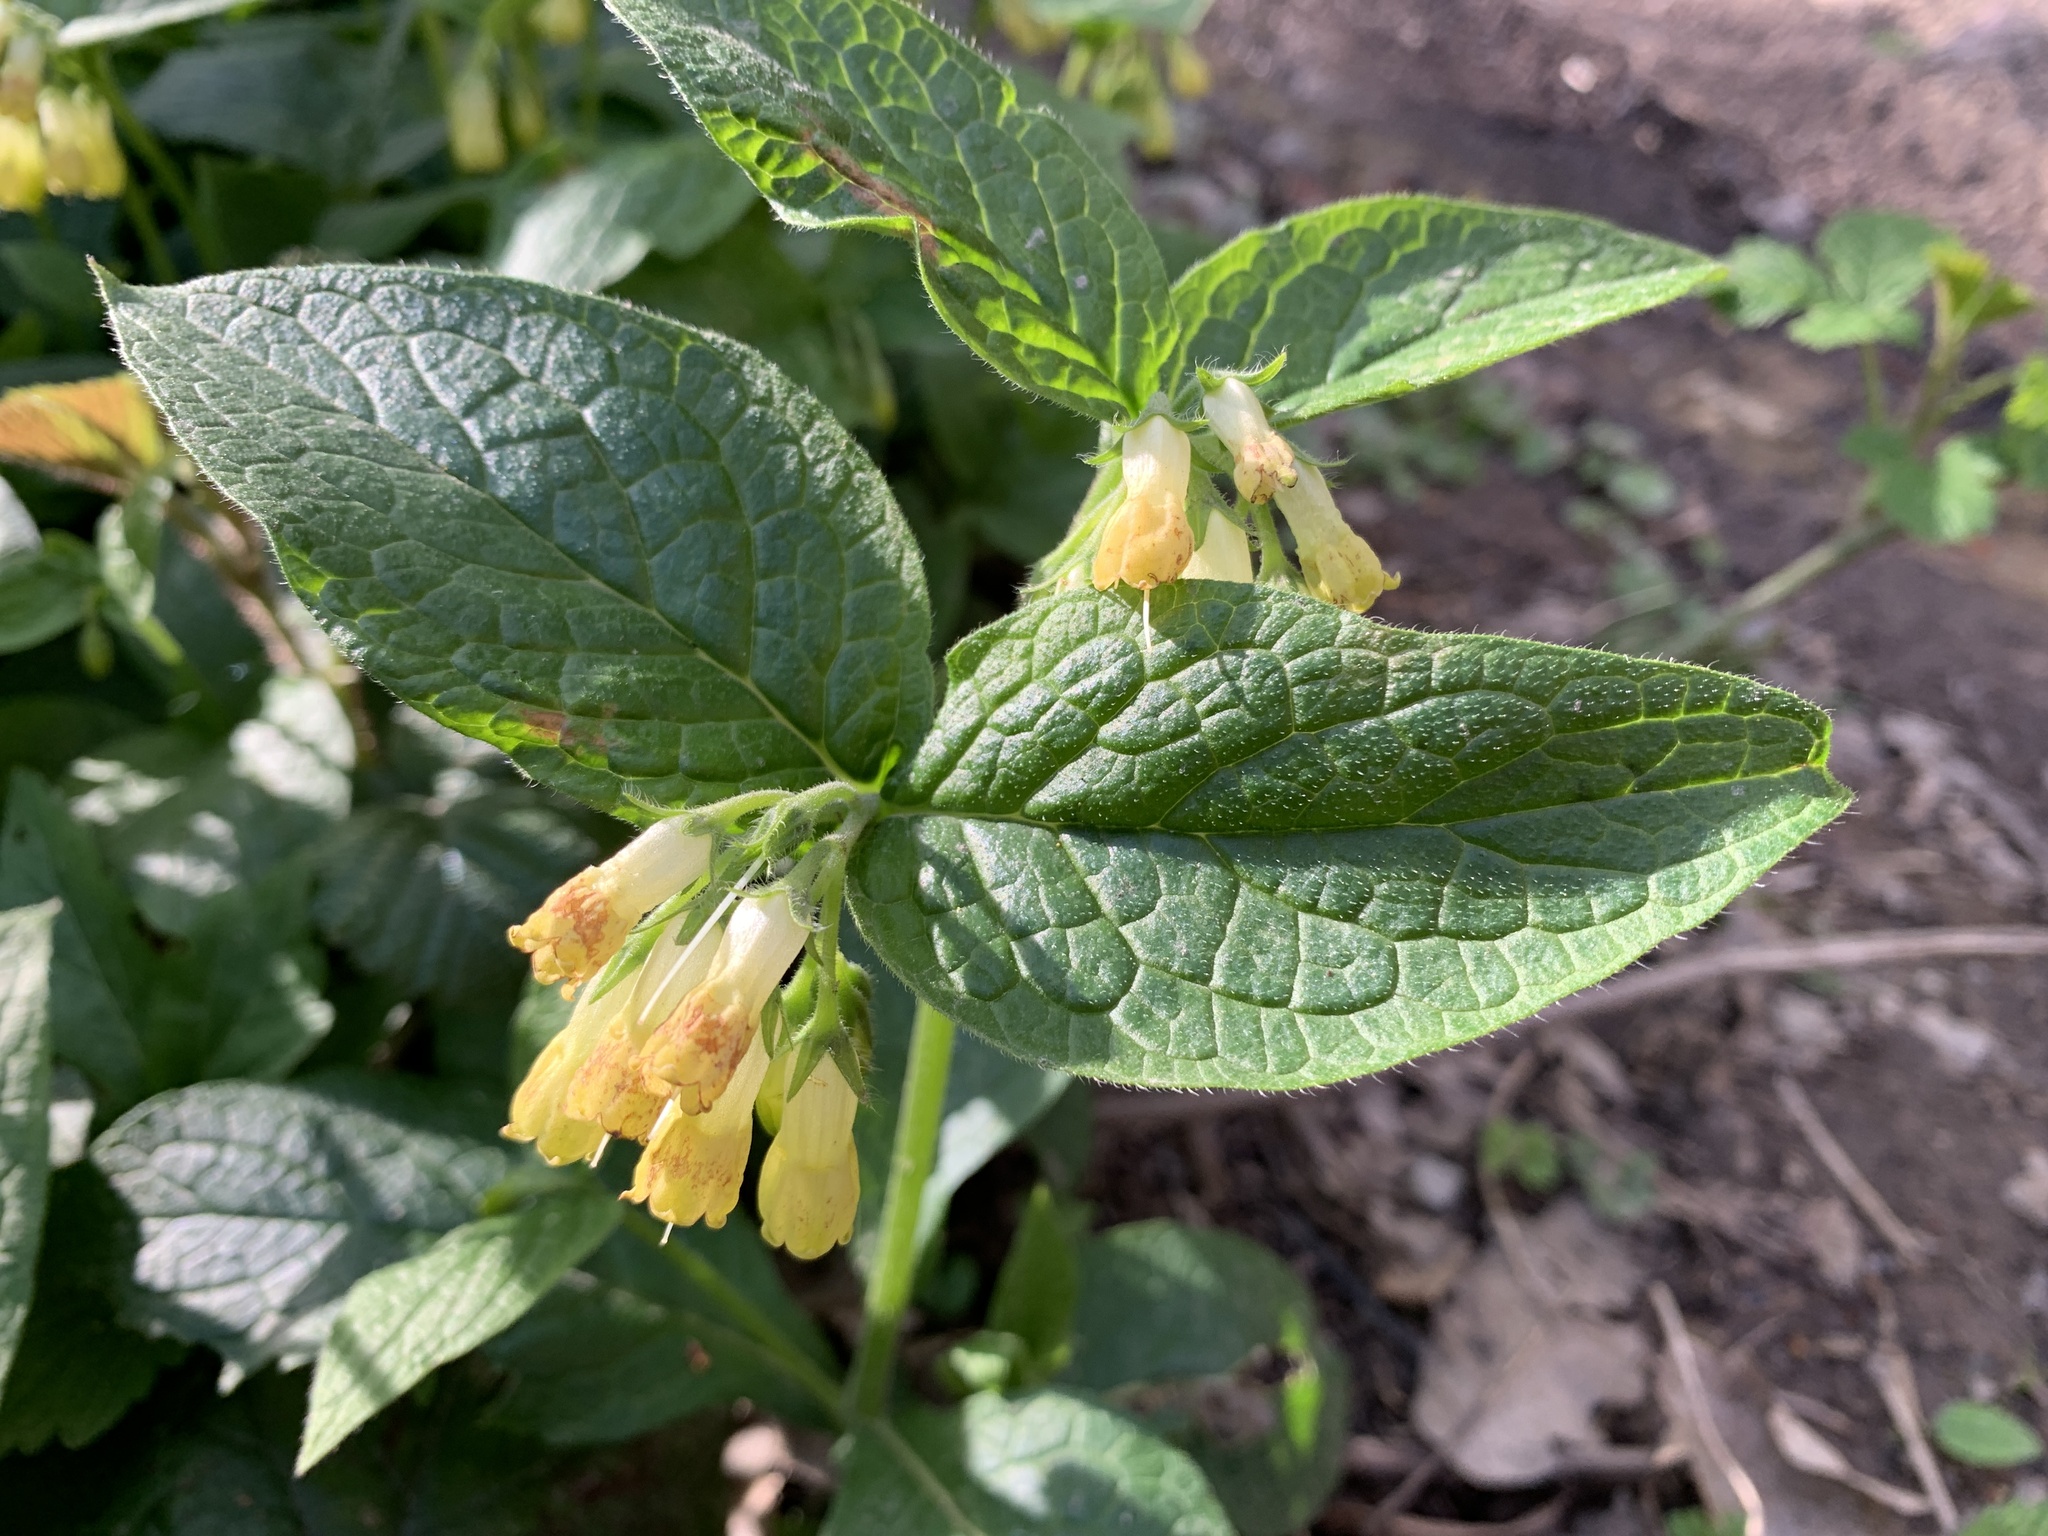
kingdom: Plantae
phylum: Tracheophyta
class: Magnoliopsida
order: Boraginales
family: Boraginaceae
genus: Symphytum
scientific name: Symphytum tuberosum
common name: Tuberous comfrey
